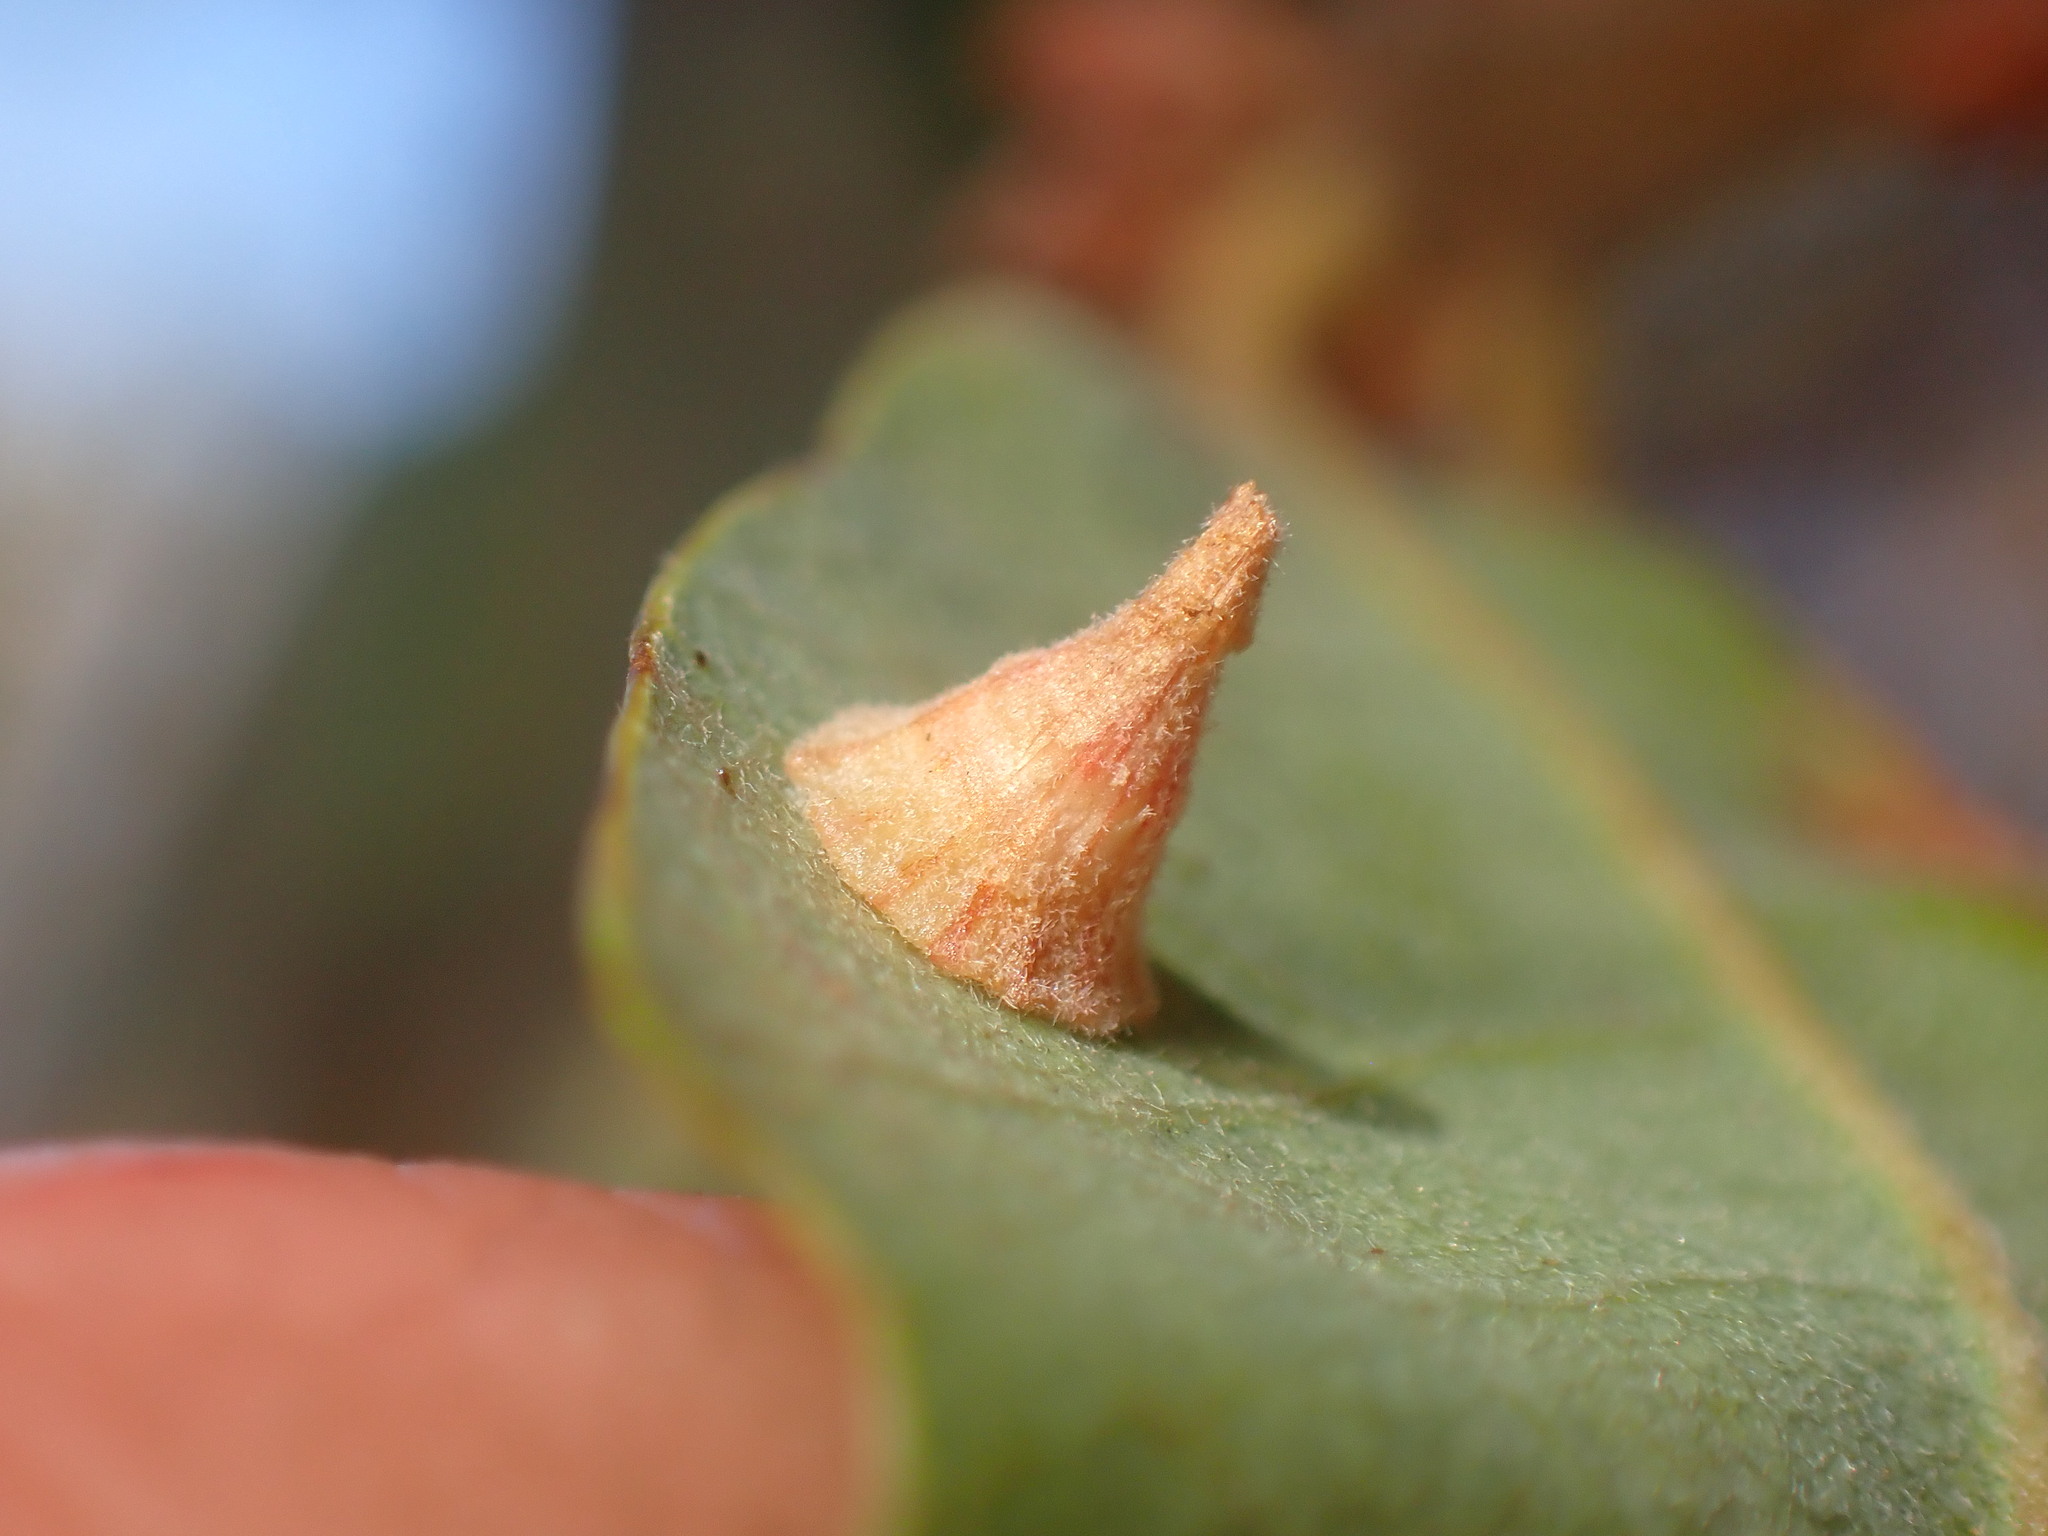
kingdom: Animalia
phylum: Arthropoda
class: Insecta
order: Hymenoptera
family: Cynipidae
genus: Andricus
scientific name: Andricus
